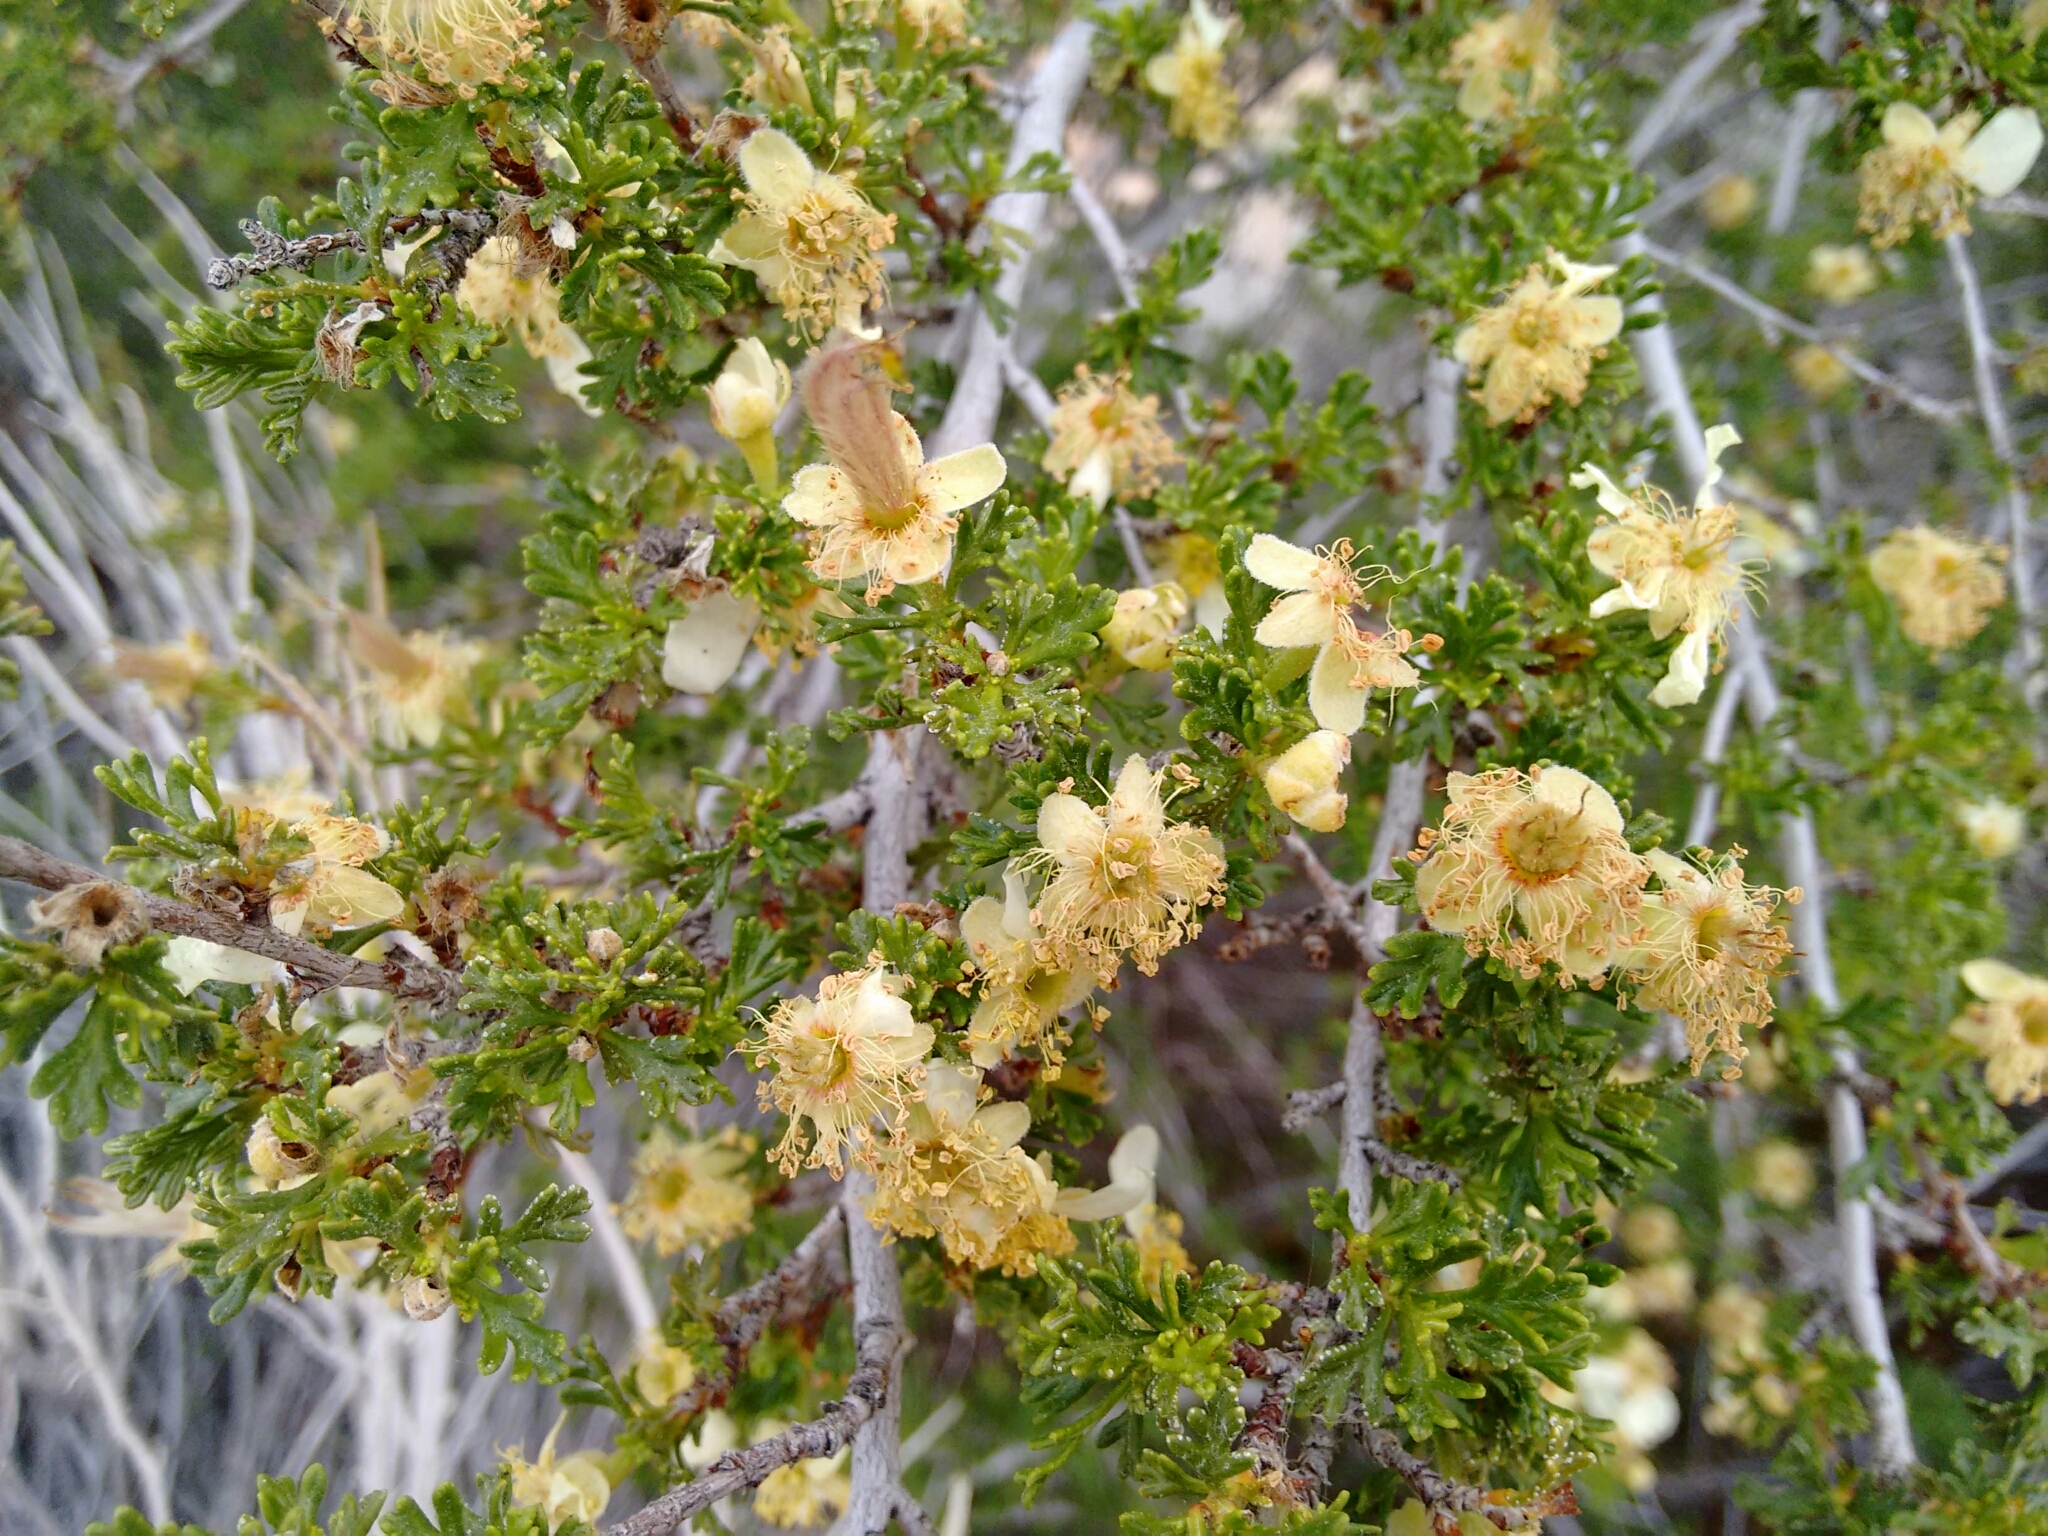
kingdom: Plantae
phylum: Tracheophyta
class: Magnoliopsida
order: Rosales
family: Rosaceae
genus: Purshia
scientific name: Purshia stansburiana
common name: Stansbury's cliffrose
